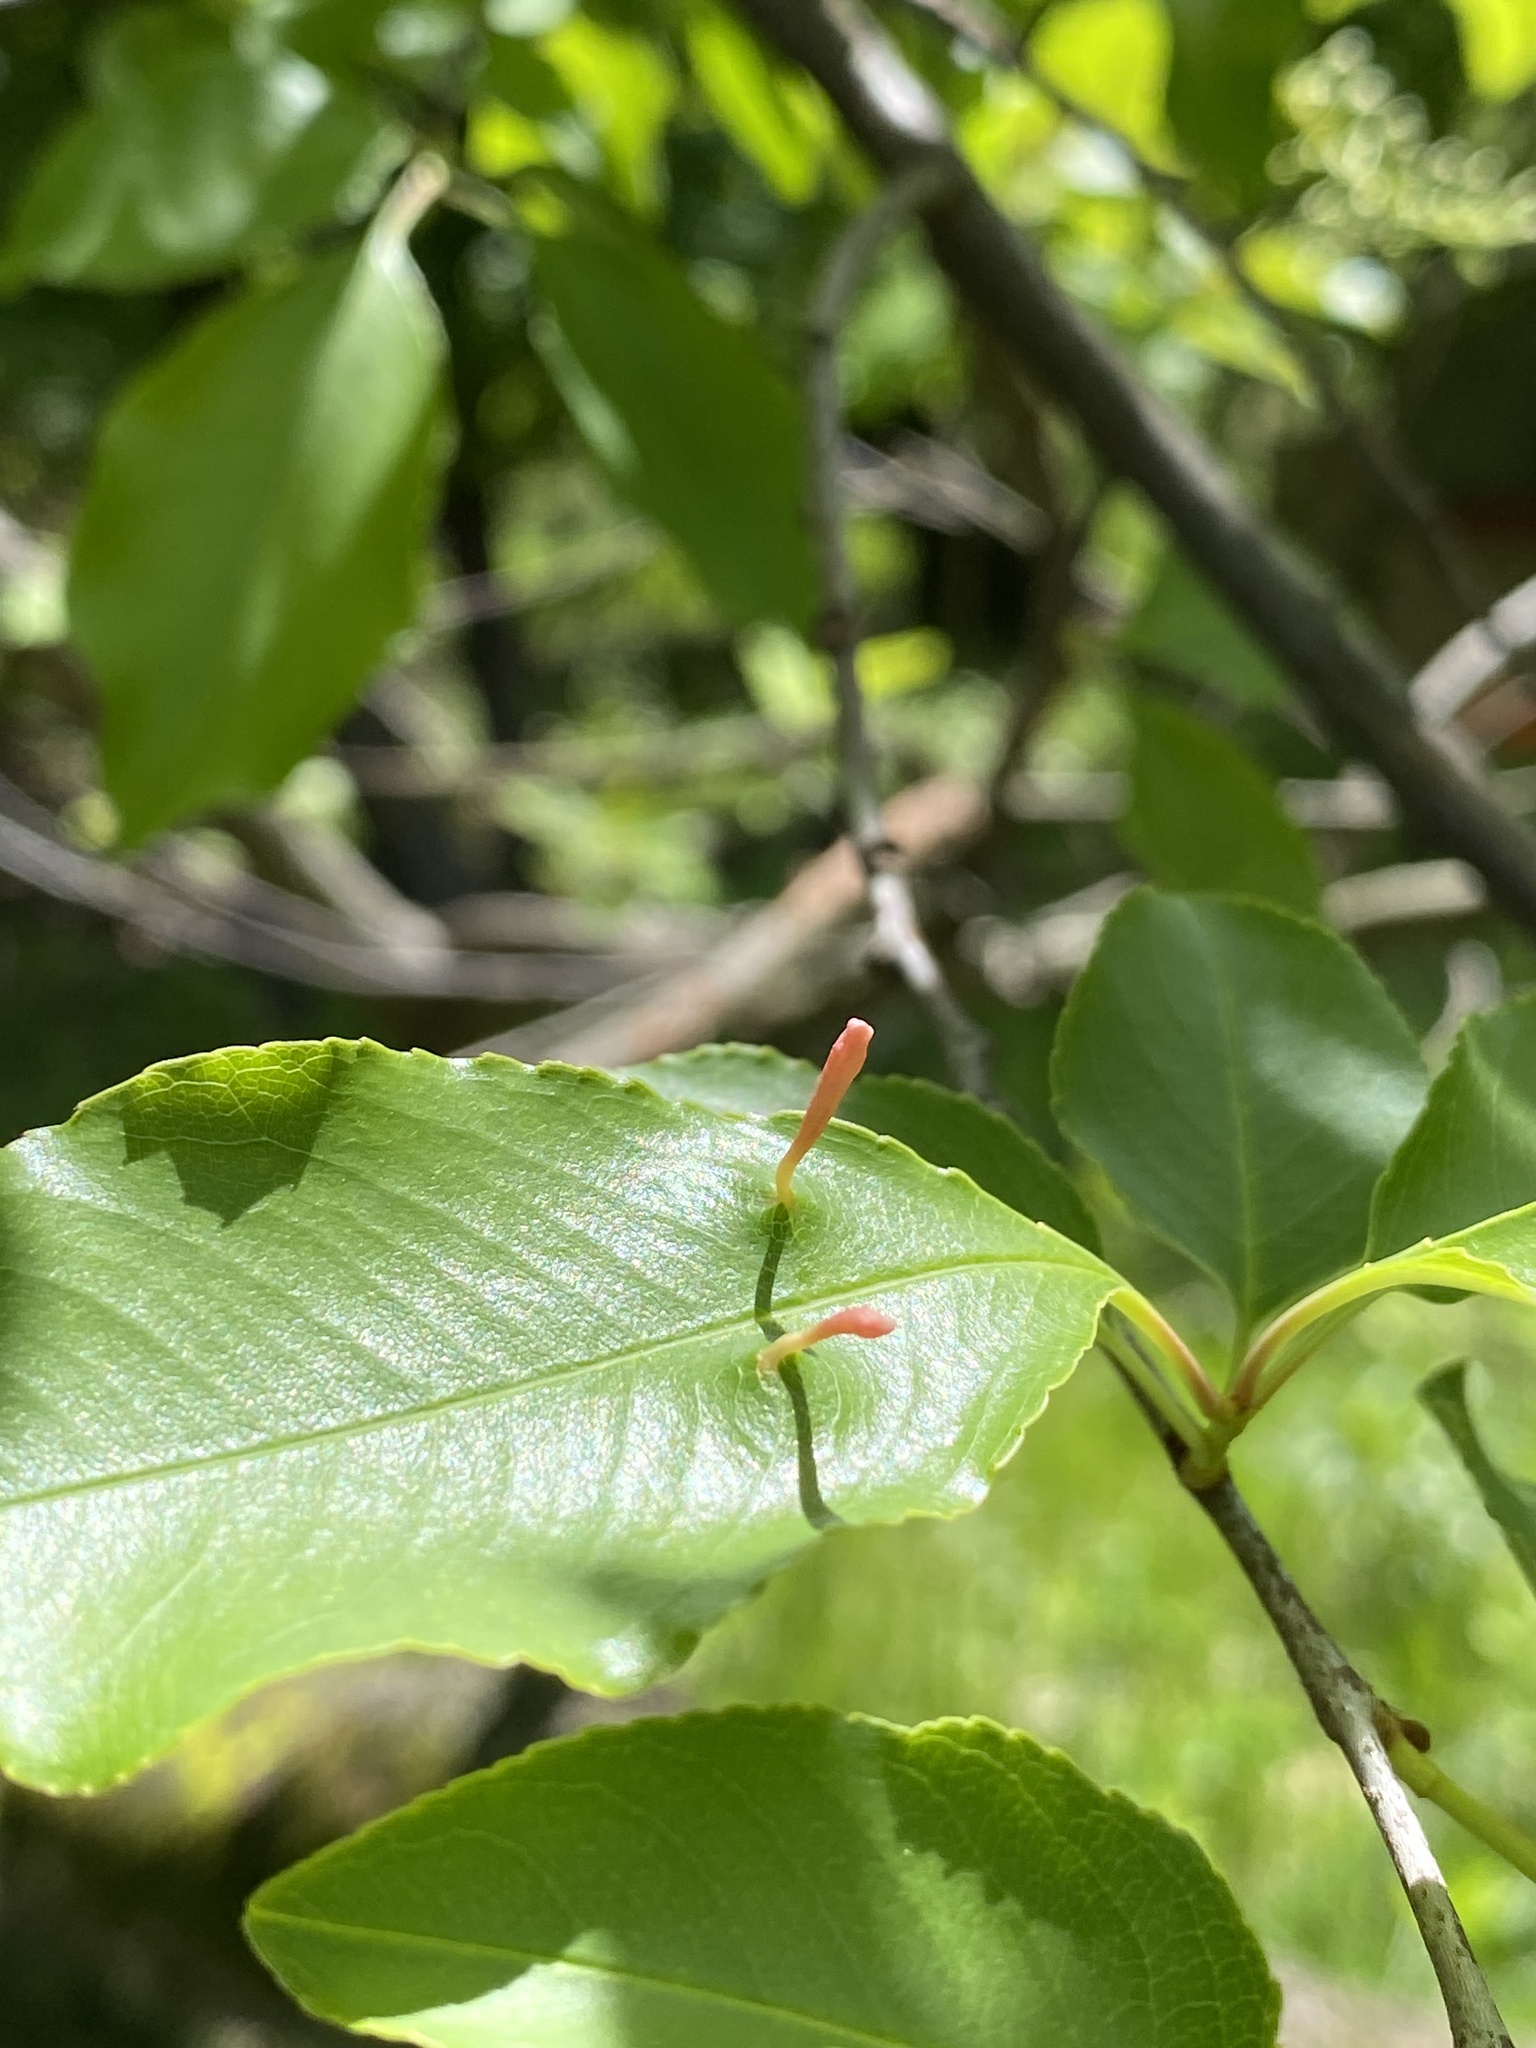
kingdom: Animalia
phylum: Arthropoda
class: Arachnida
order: Trombidiformes
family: Eriophyidae
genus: Eriophyes
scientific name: Eriophyes
